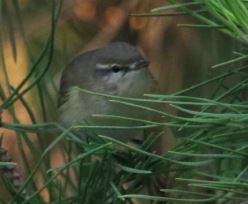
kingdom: Animalia
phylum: Chordata
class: Aves
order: Passeriformes
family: Phylloscopidae
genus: Phylloscopus
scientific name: Phylloscopus collybita
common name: Common chiffchaff
